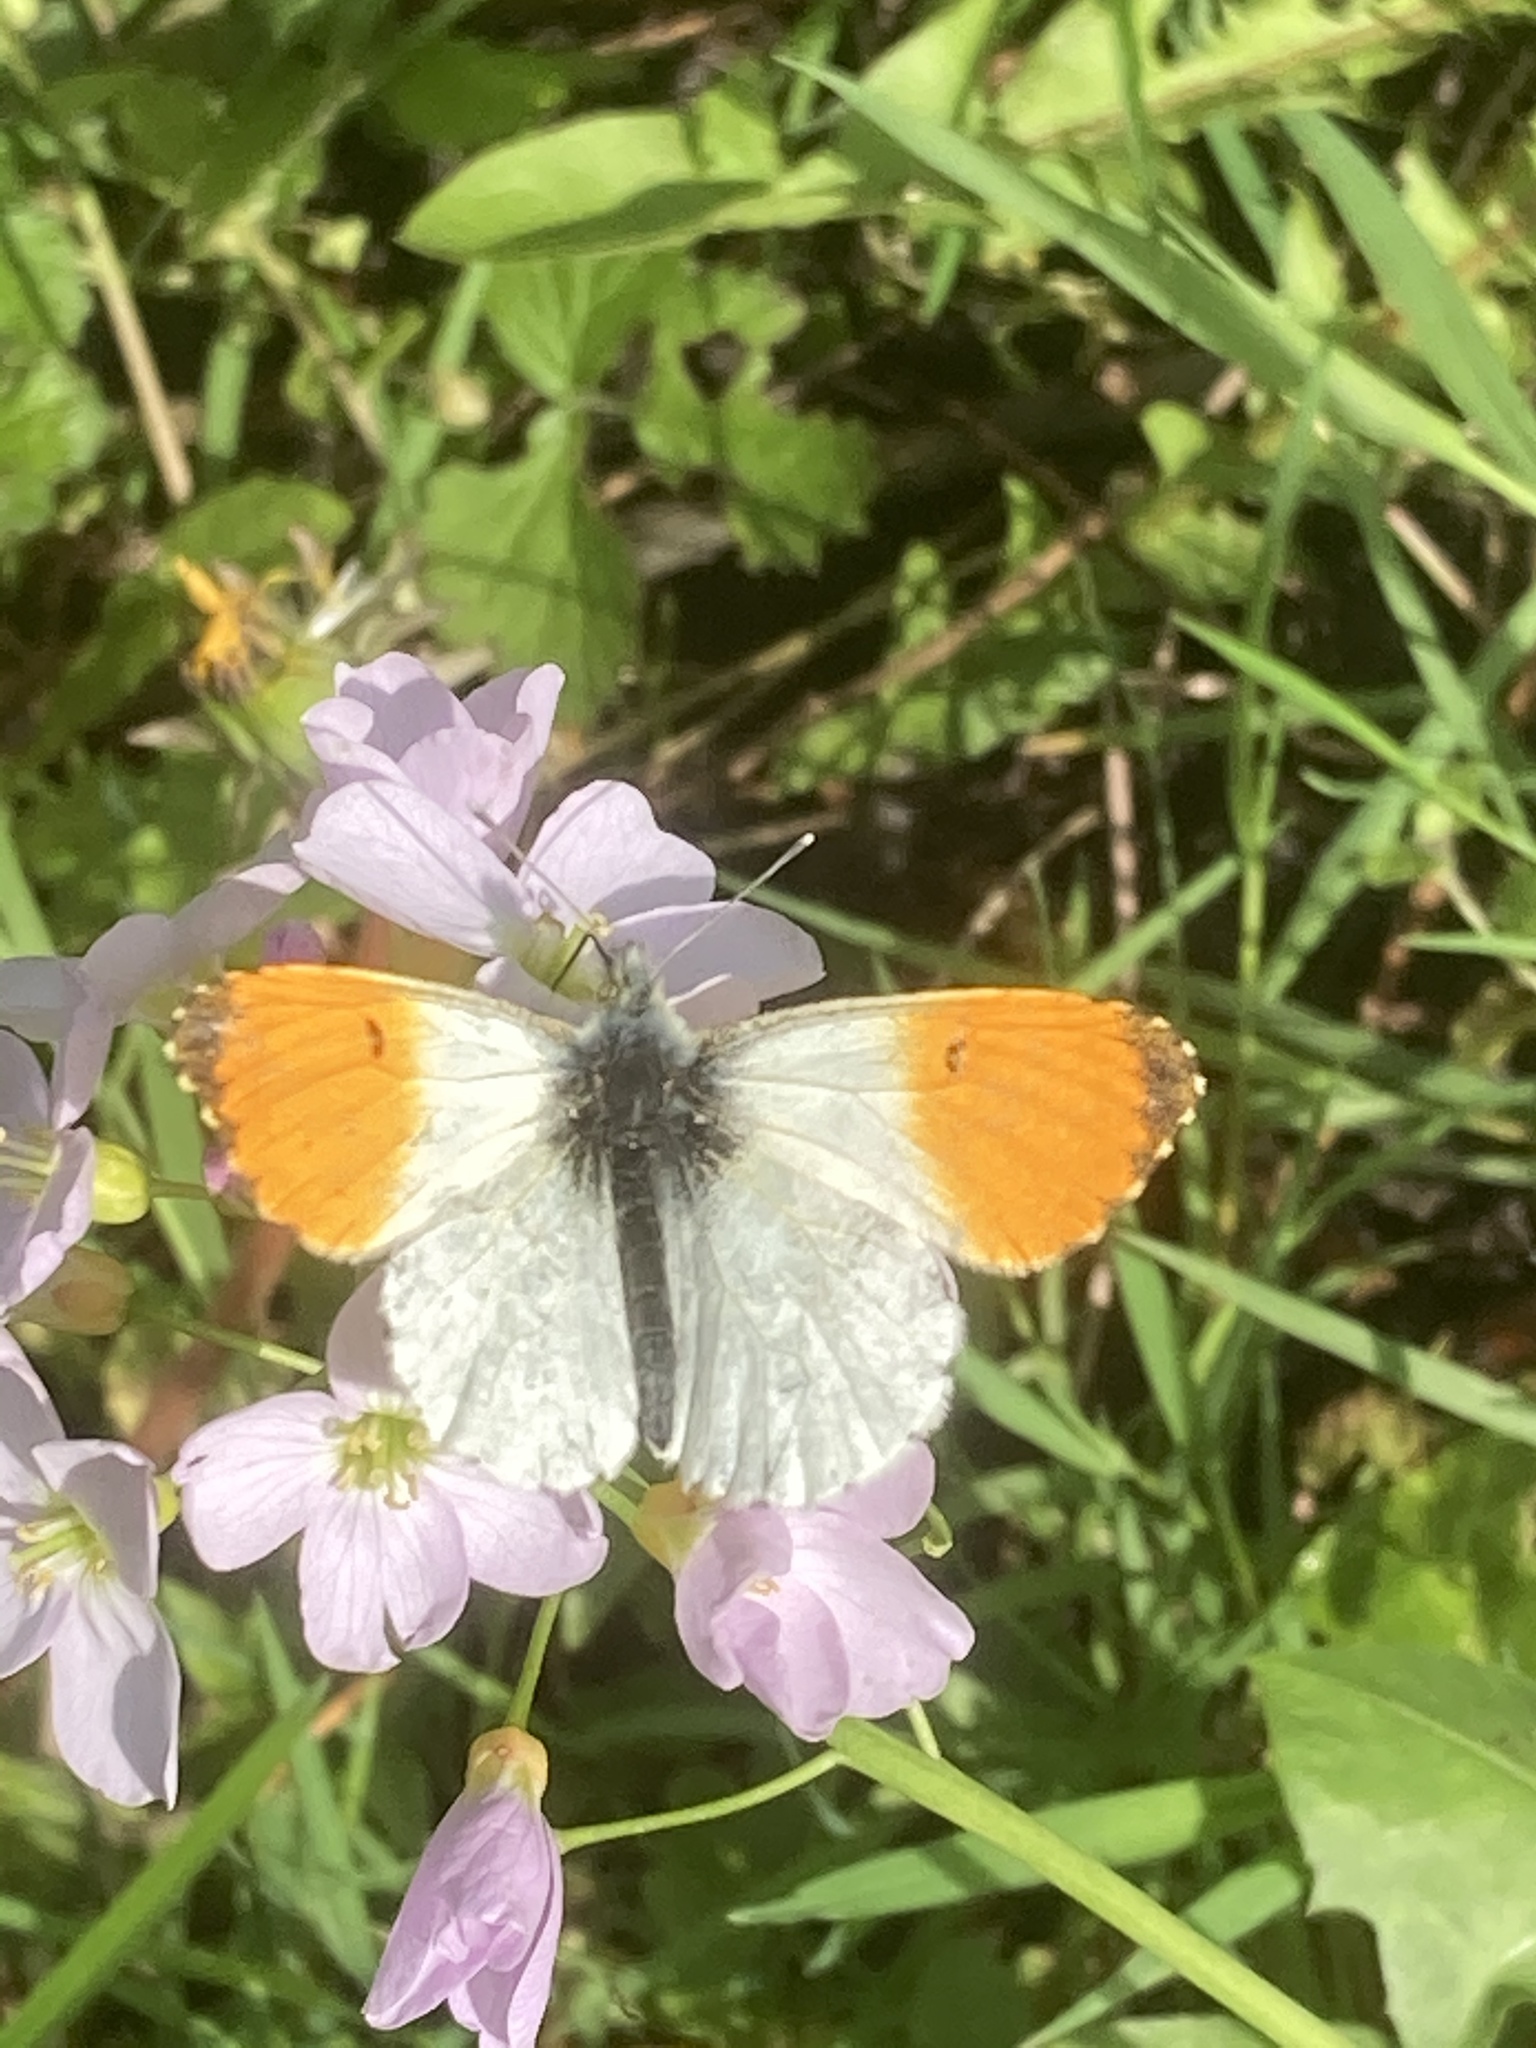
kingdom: Animalia
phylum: Arthropoda
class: Insecta
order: Lepidoptera
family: Pieridae
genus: Anthocharis
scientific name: Anthocharis cardamines
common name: Orange-tip
